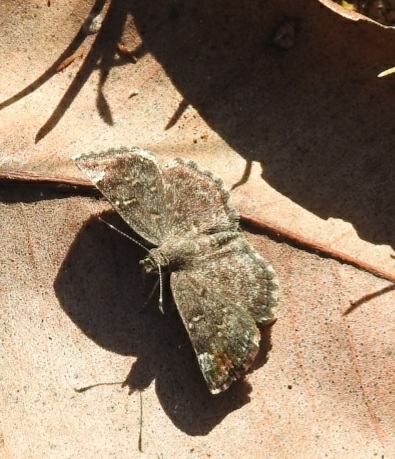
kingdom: Animalia
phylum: Arthropoda
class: Insecta
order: Lepidoptera
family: Hesperiidae
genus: Sarangesa
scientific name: Sarangesa purendra
